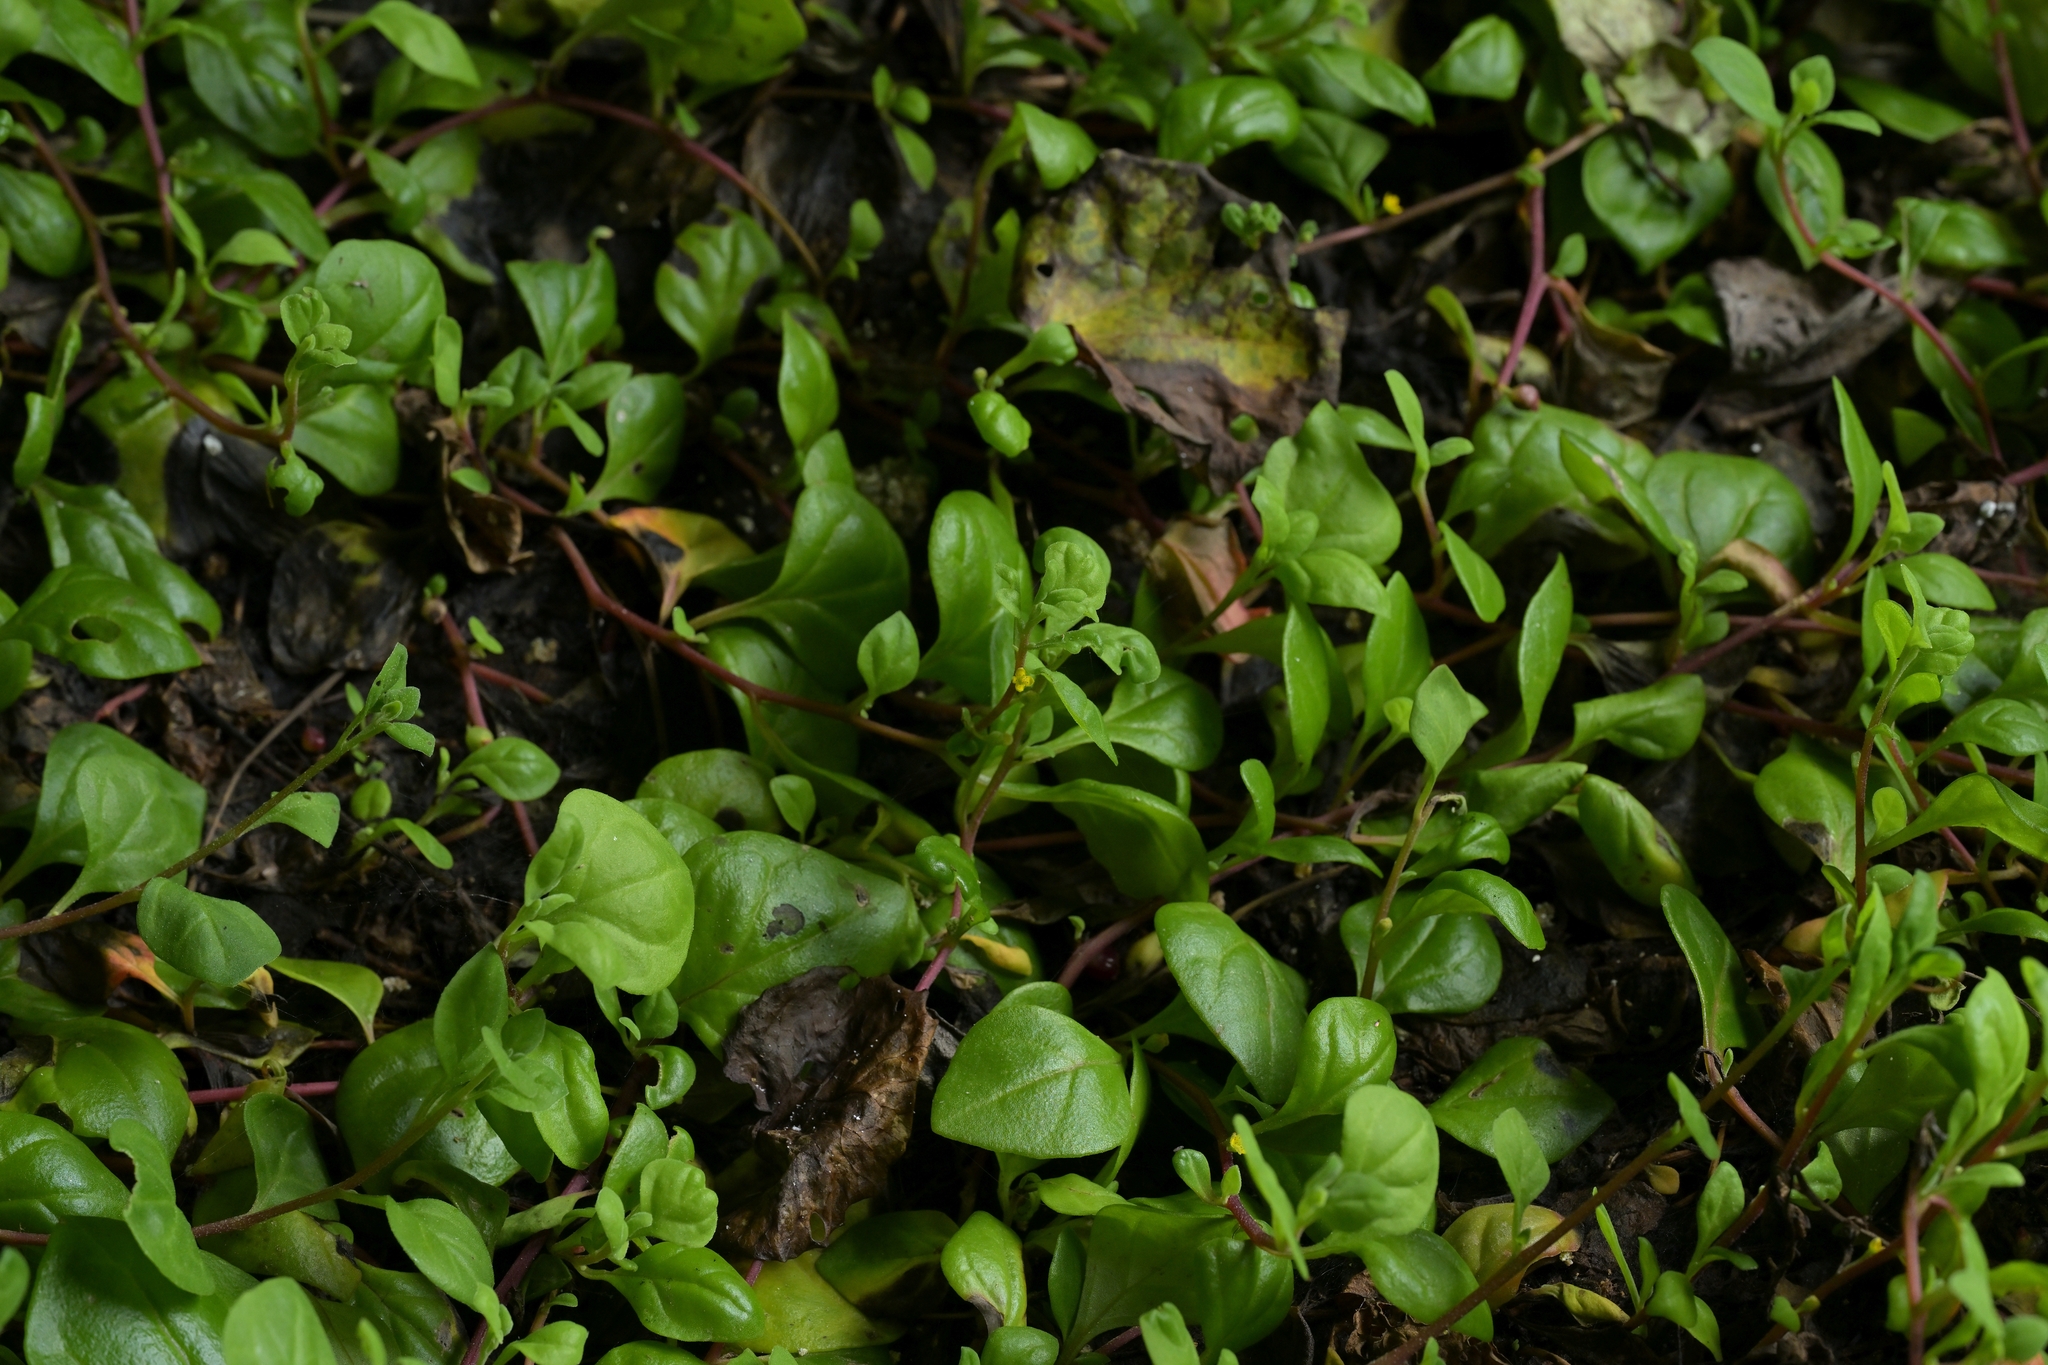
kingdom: Plantae
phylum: Tracheophyta
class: Magnoliopsida
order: Caryophyllales
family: Aizoaceae
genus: Tetragonia
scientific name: Tetragonia implexicoma
